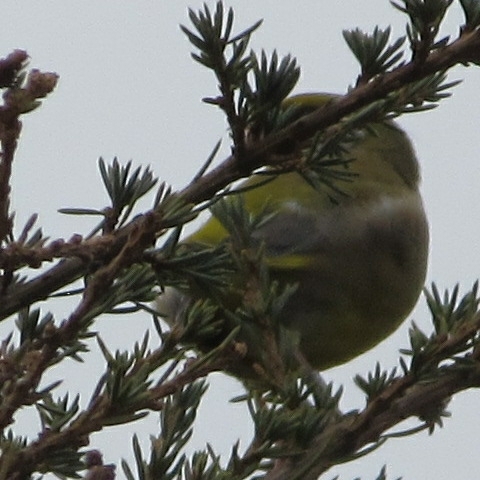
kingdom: Plantae
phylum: Tracheophyta
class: Liliopsida
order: Poales
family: Poaceae
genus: Chloris
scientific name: Chloris chloris
